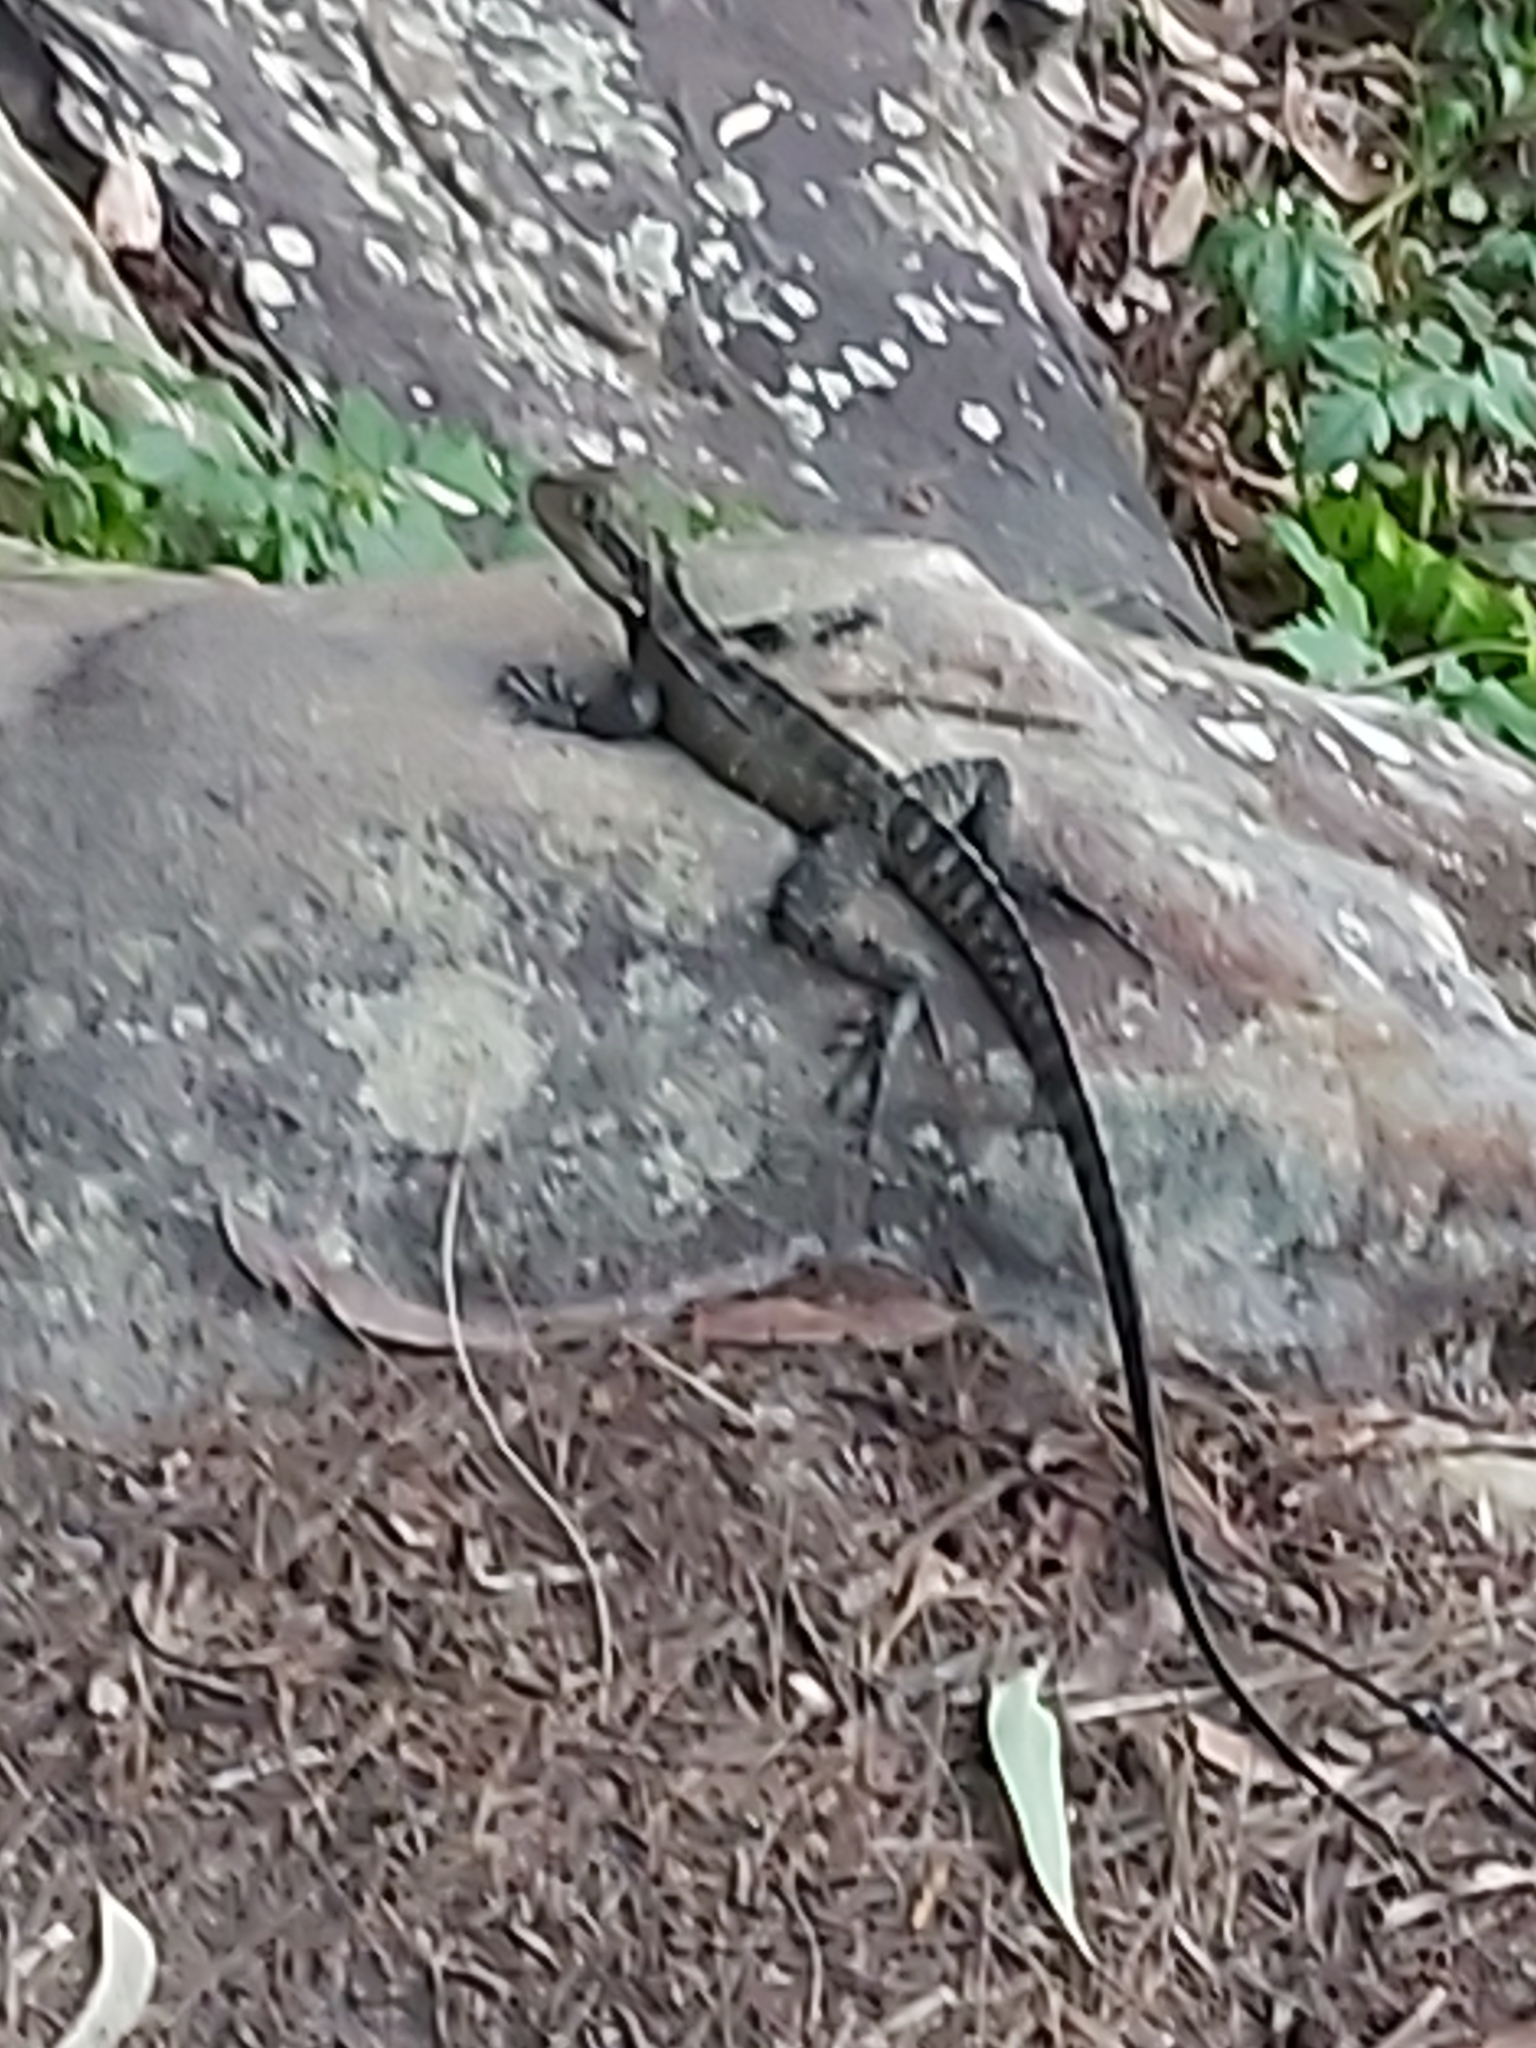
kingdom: Animalia
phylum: Chordata
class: Squamata
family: Agamidae
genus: Intellagama
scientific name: Intellagama lesueurii
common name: Eastern water dragon
